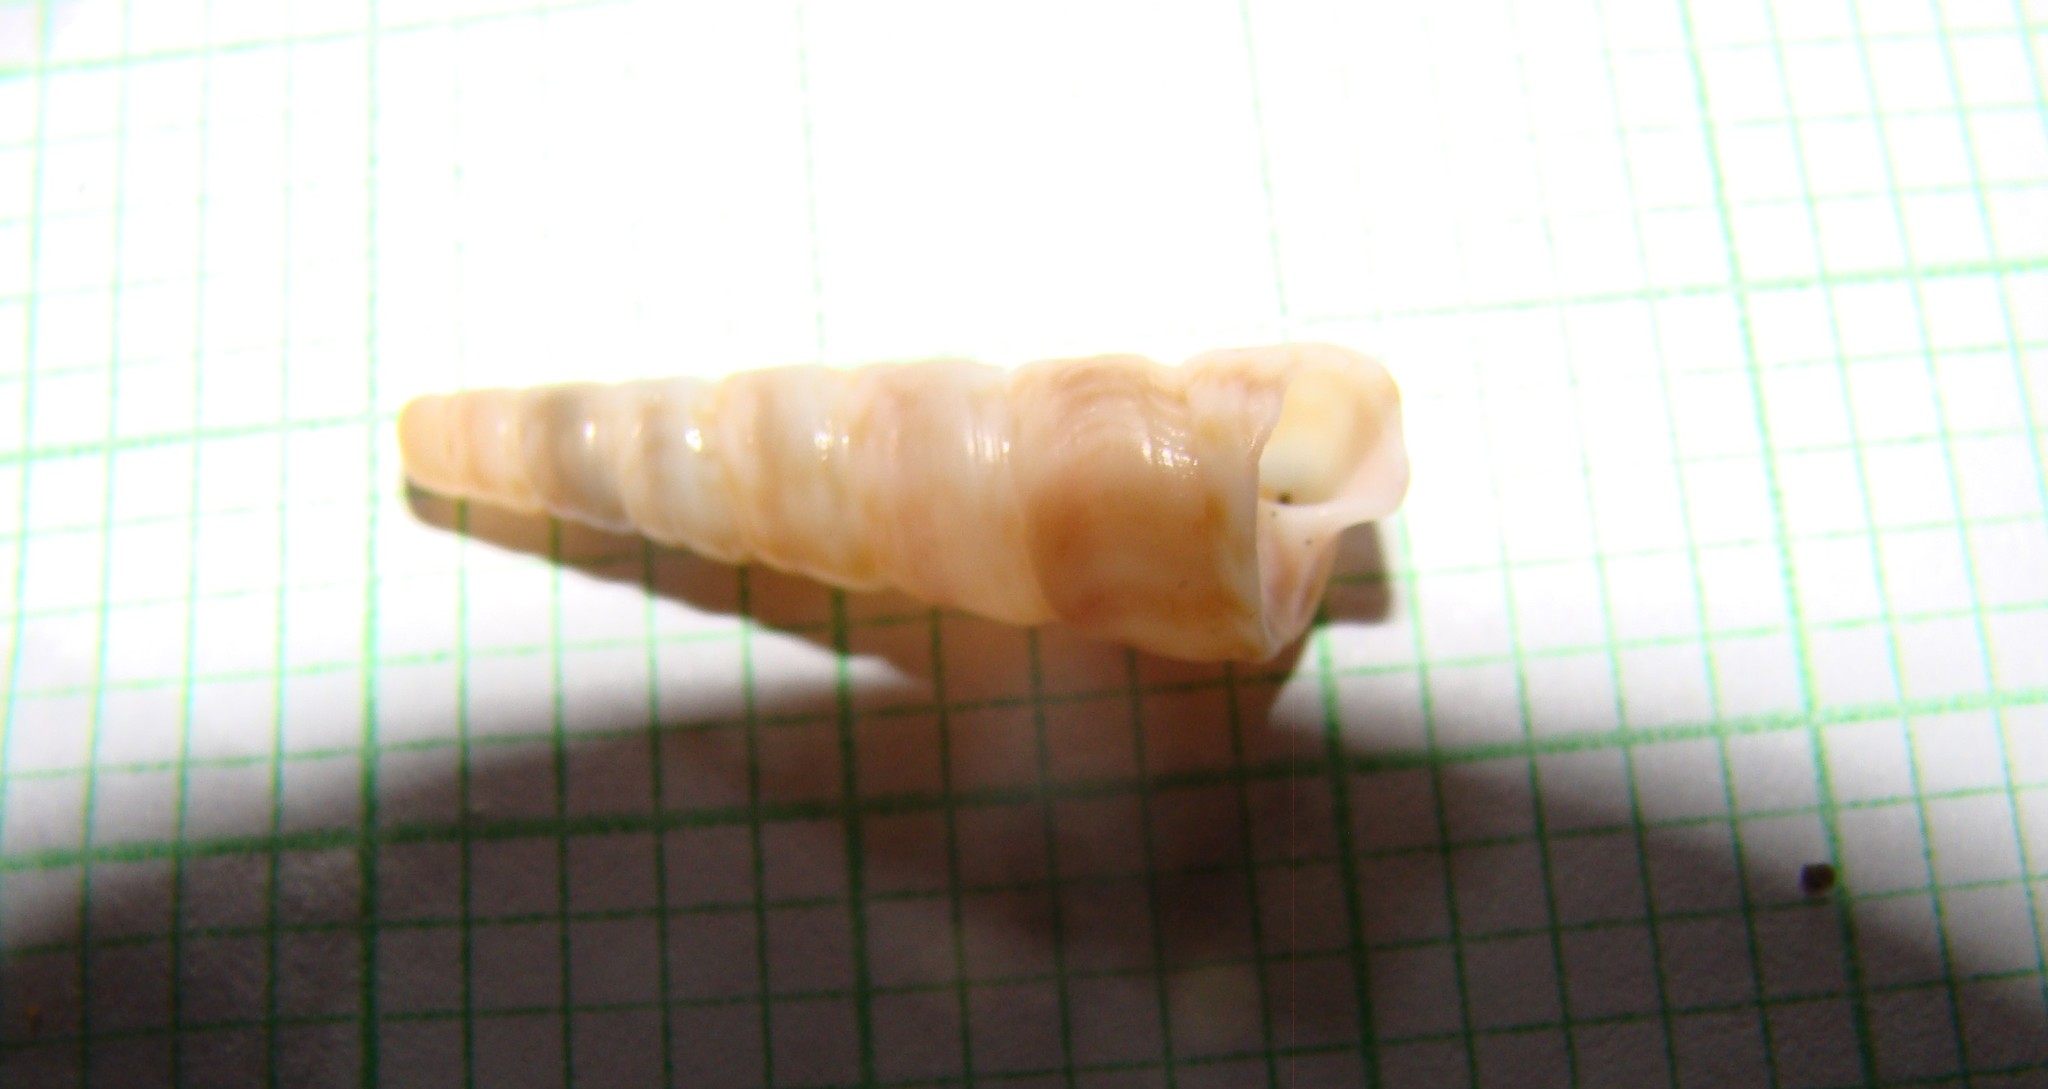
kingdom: Animalia
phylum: Mollusca
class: Gastropoda
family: Turritellidae
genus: Stiracolpus
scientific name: Stiracolpus pagoda
